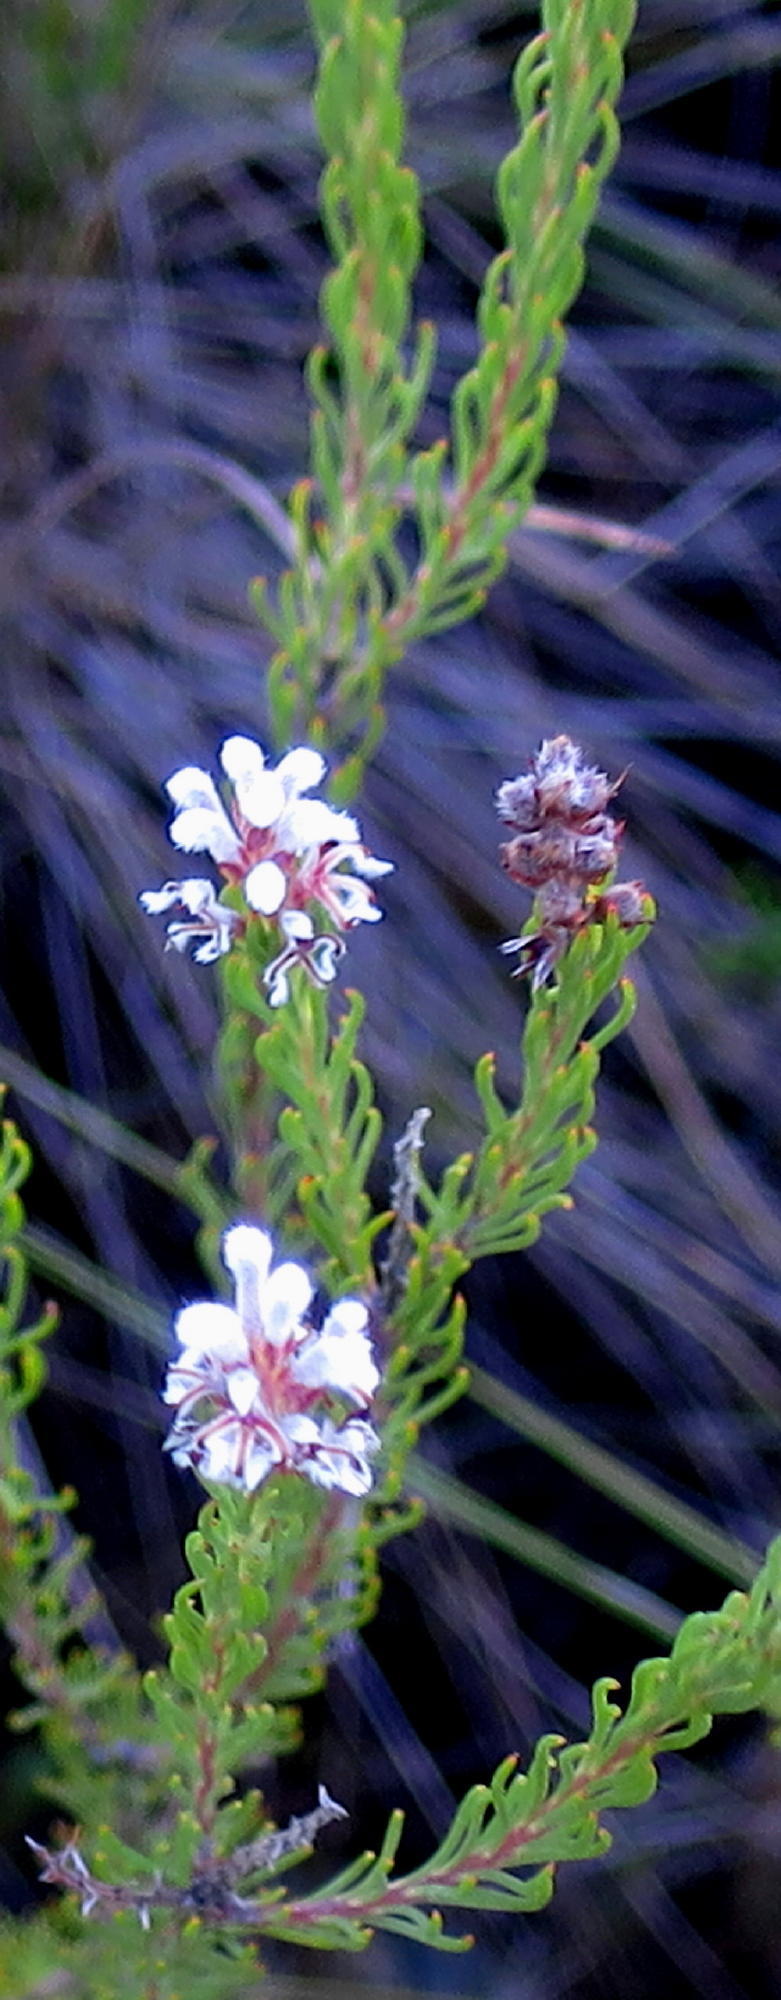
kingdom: Plantae
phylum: Tracheophyta
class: Magnoliopsida
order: Proteales
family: Proteaceae
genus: Spatalla
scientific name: Spatalla barbigera
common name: Fine-leaf spoon
